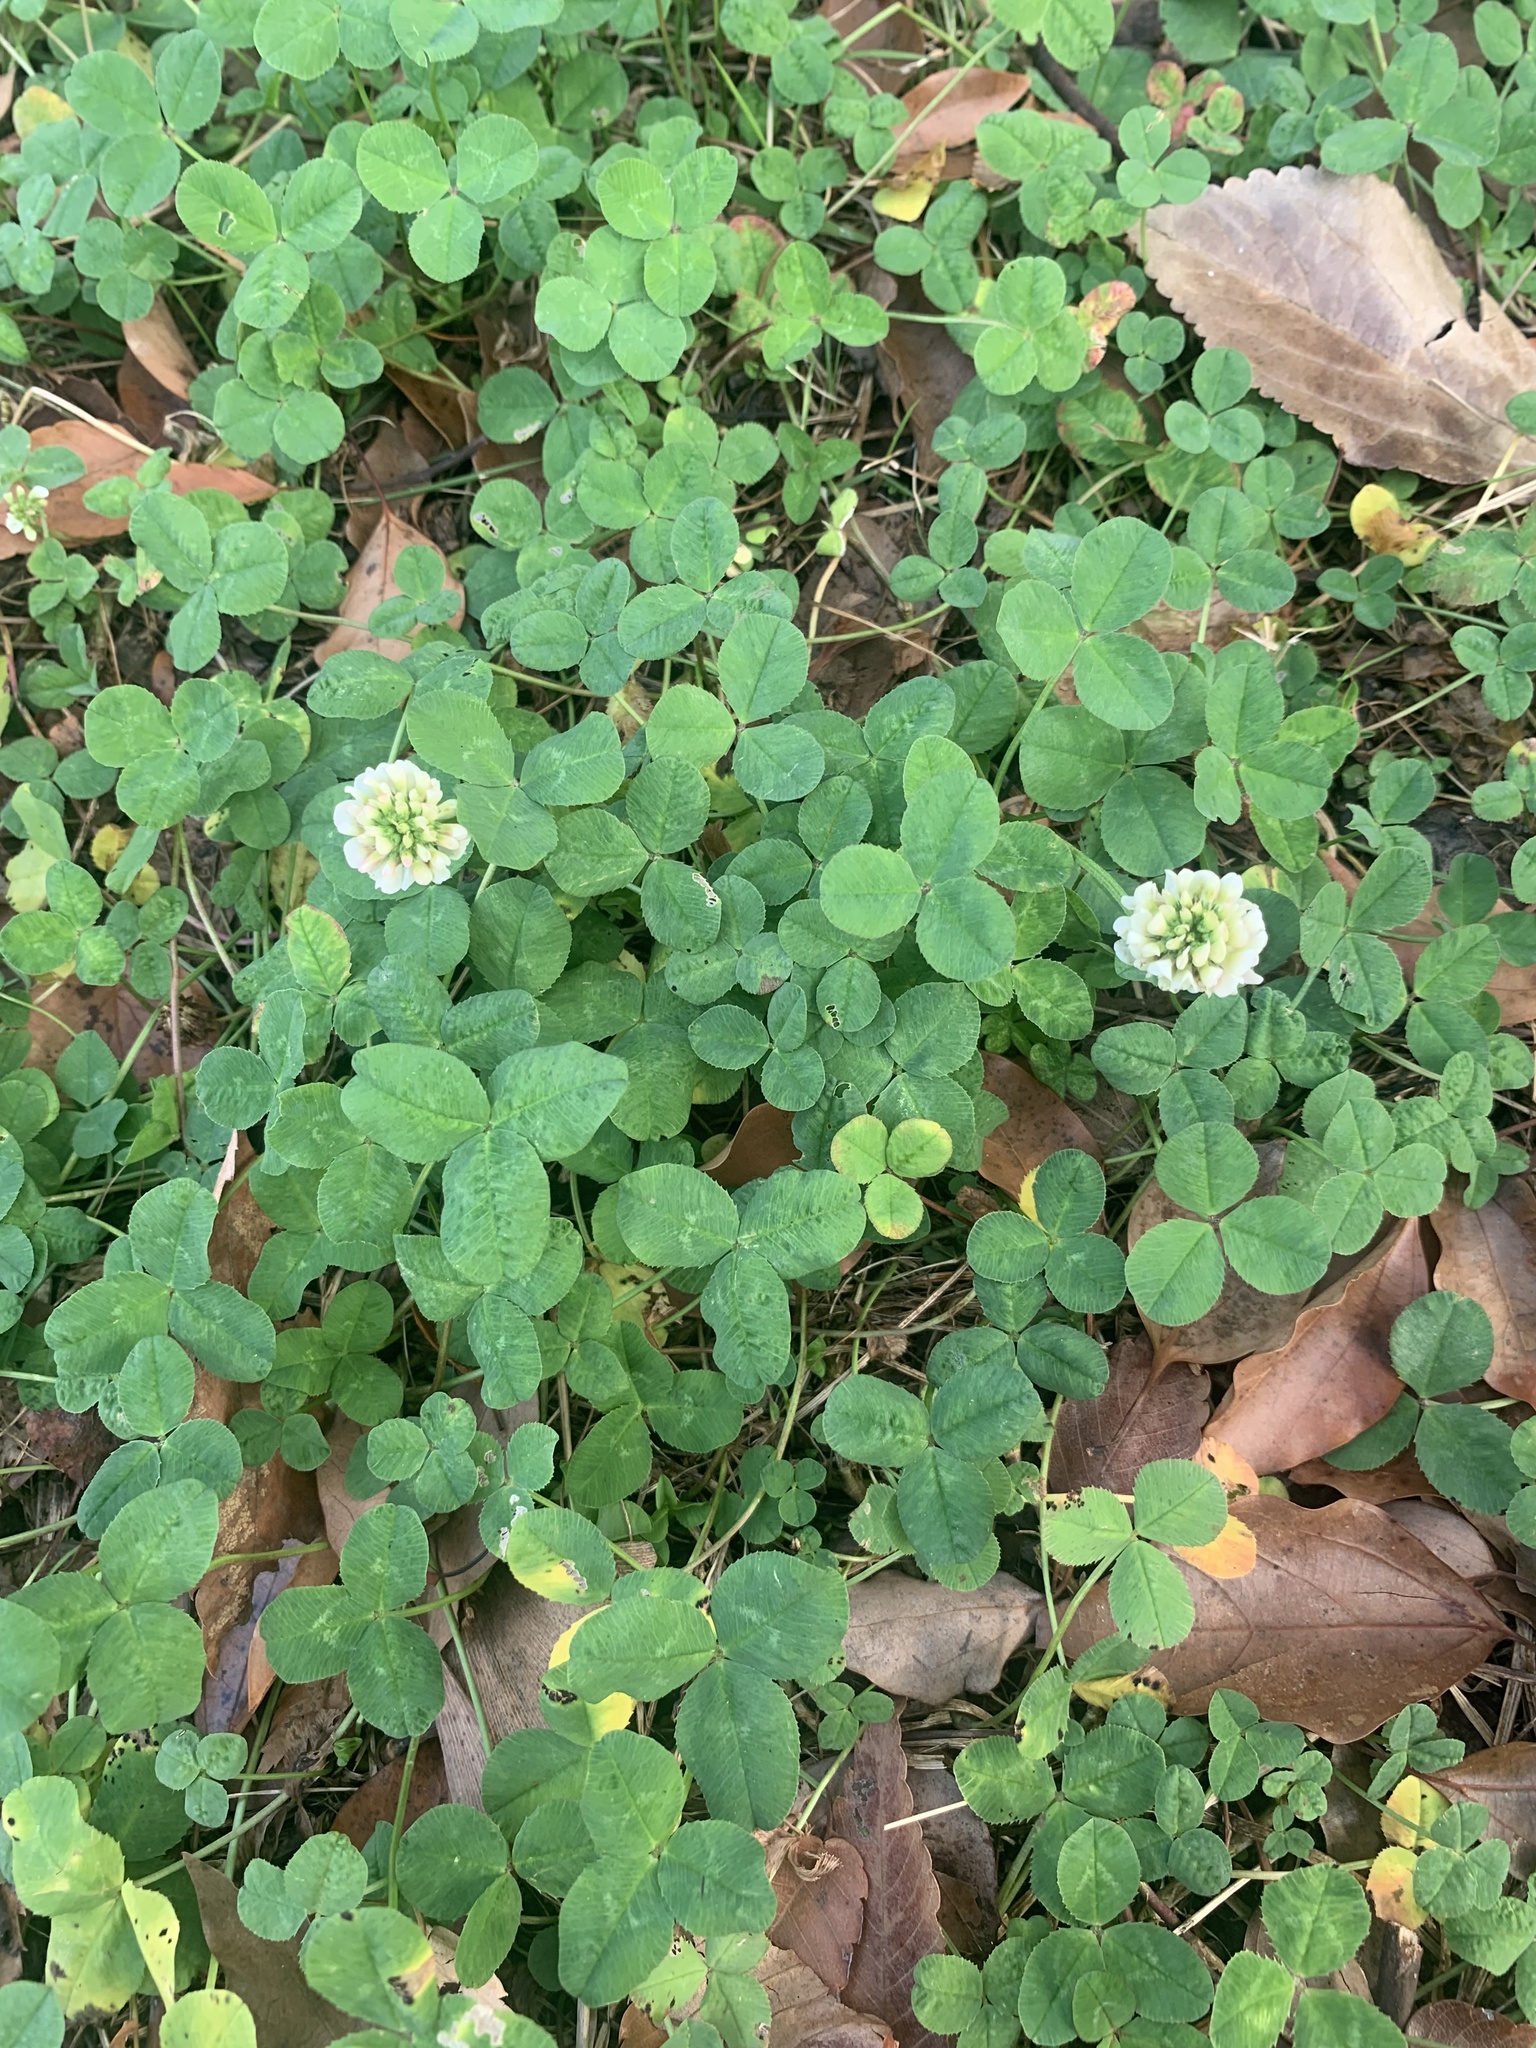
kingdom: Plantae
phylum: Tracheophyta
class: Magnoliopsida
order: Fabales
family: Fabaceae
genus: Trifolium
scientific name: Trifolium repens
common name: White clover
